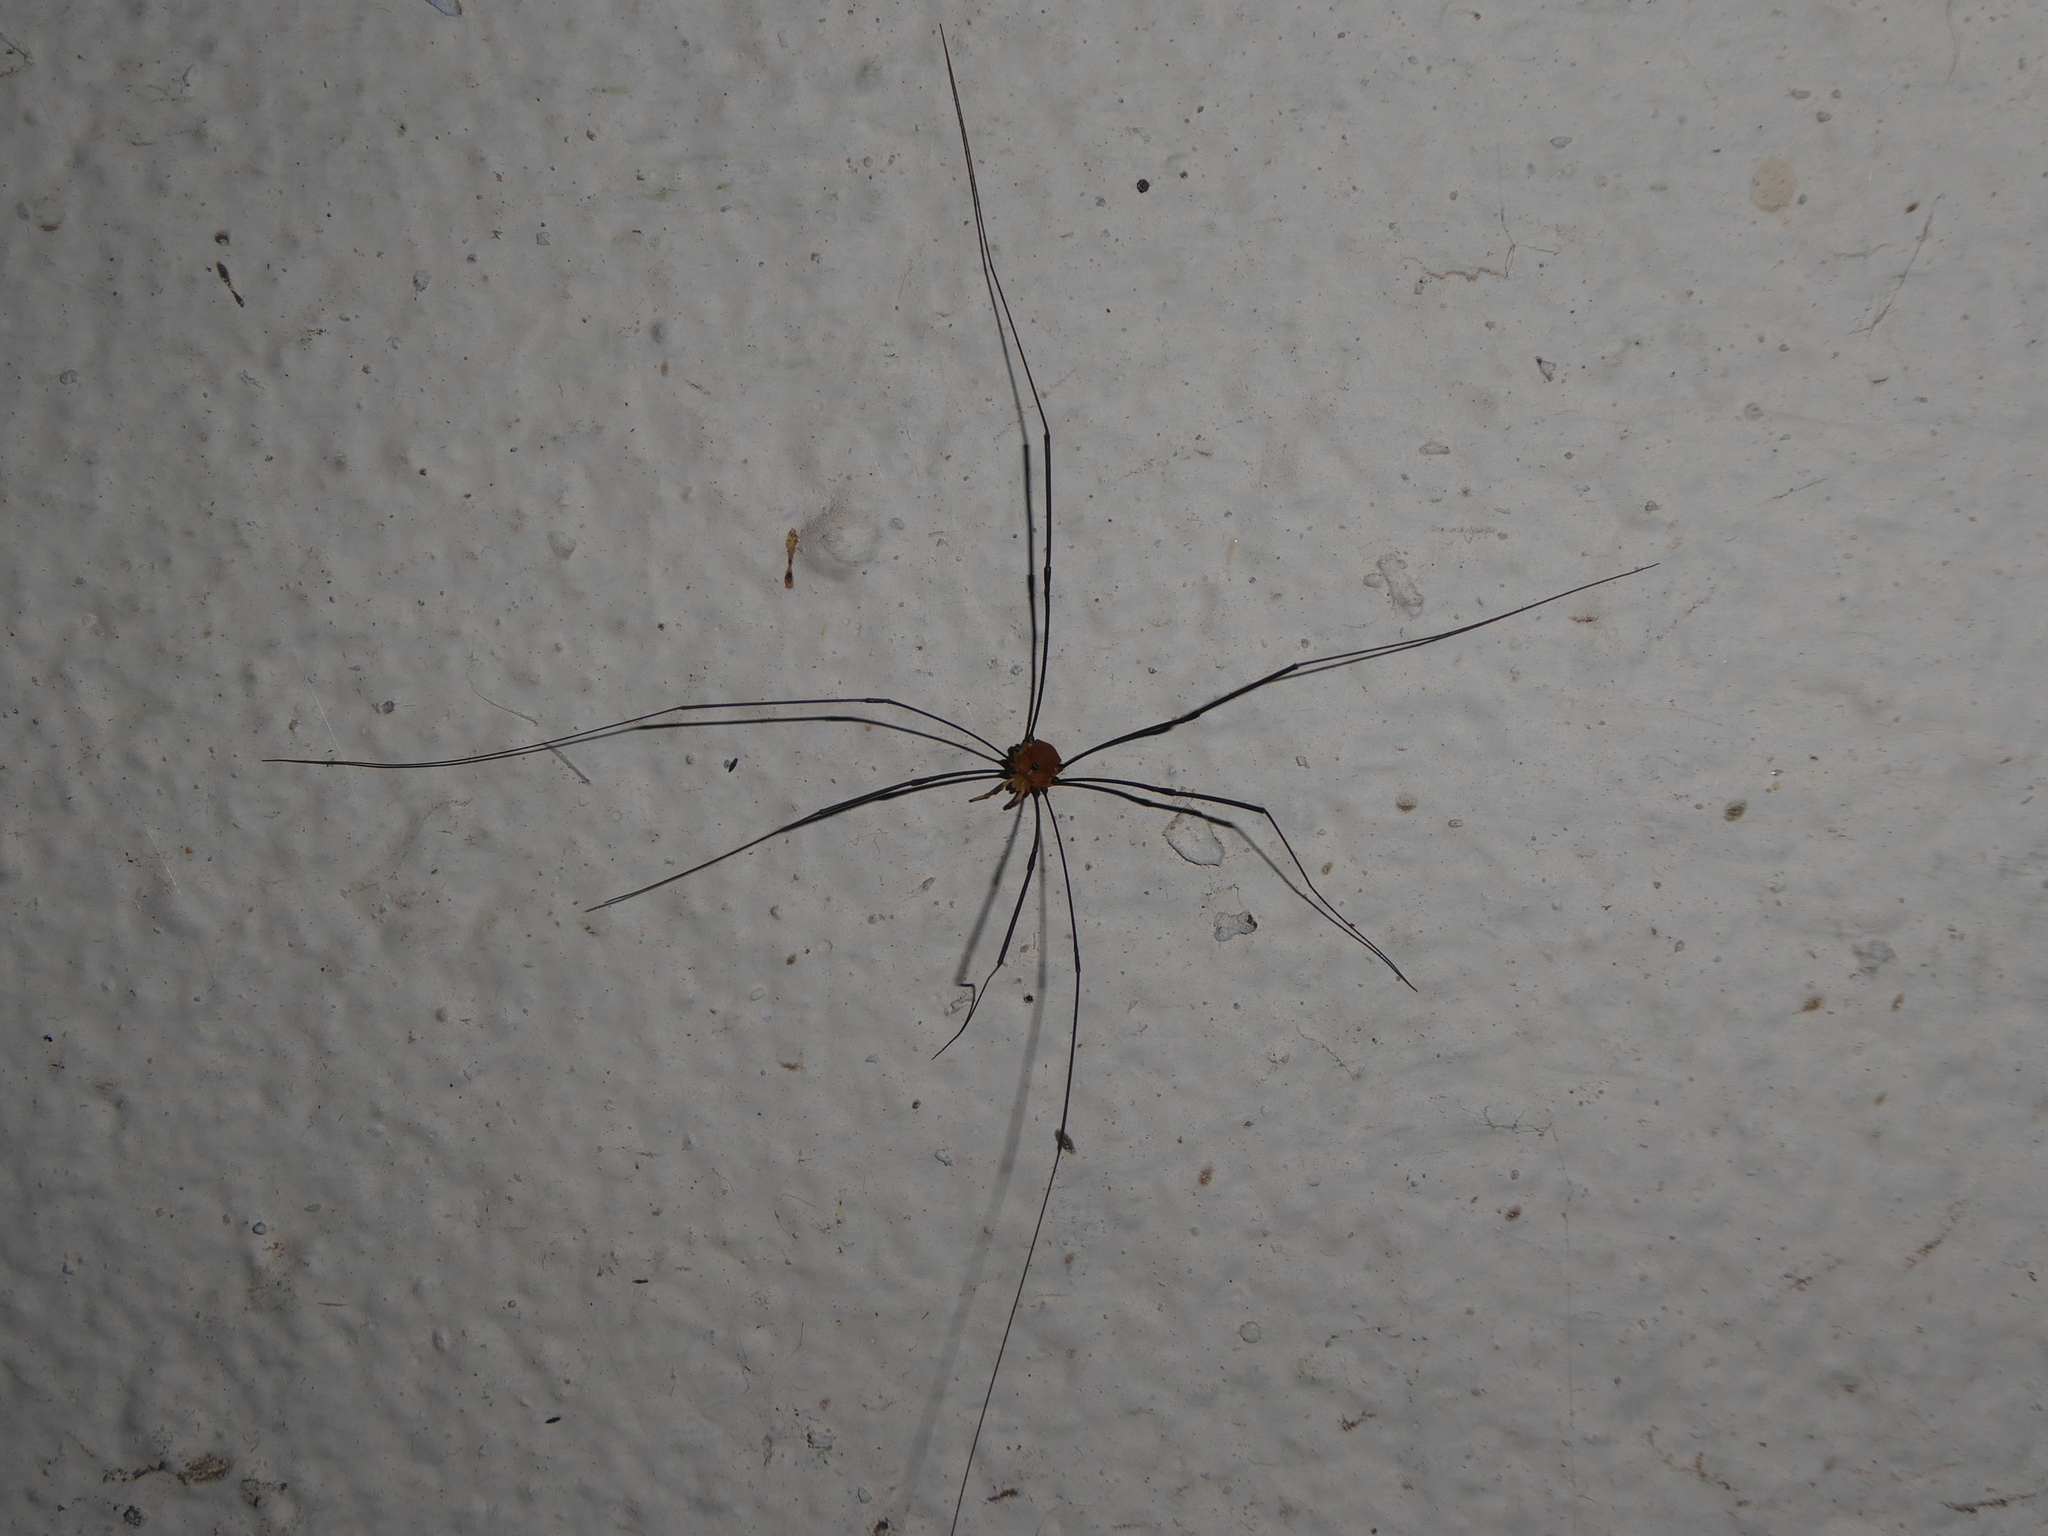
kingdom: Animalia
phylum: Arthropoda
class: Arachnida
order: Opiliones
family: Sclerosomatidae
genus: Leiobunum
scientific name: Leiobunum rotundum
